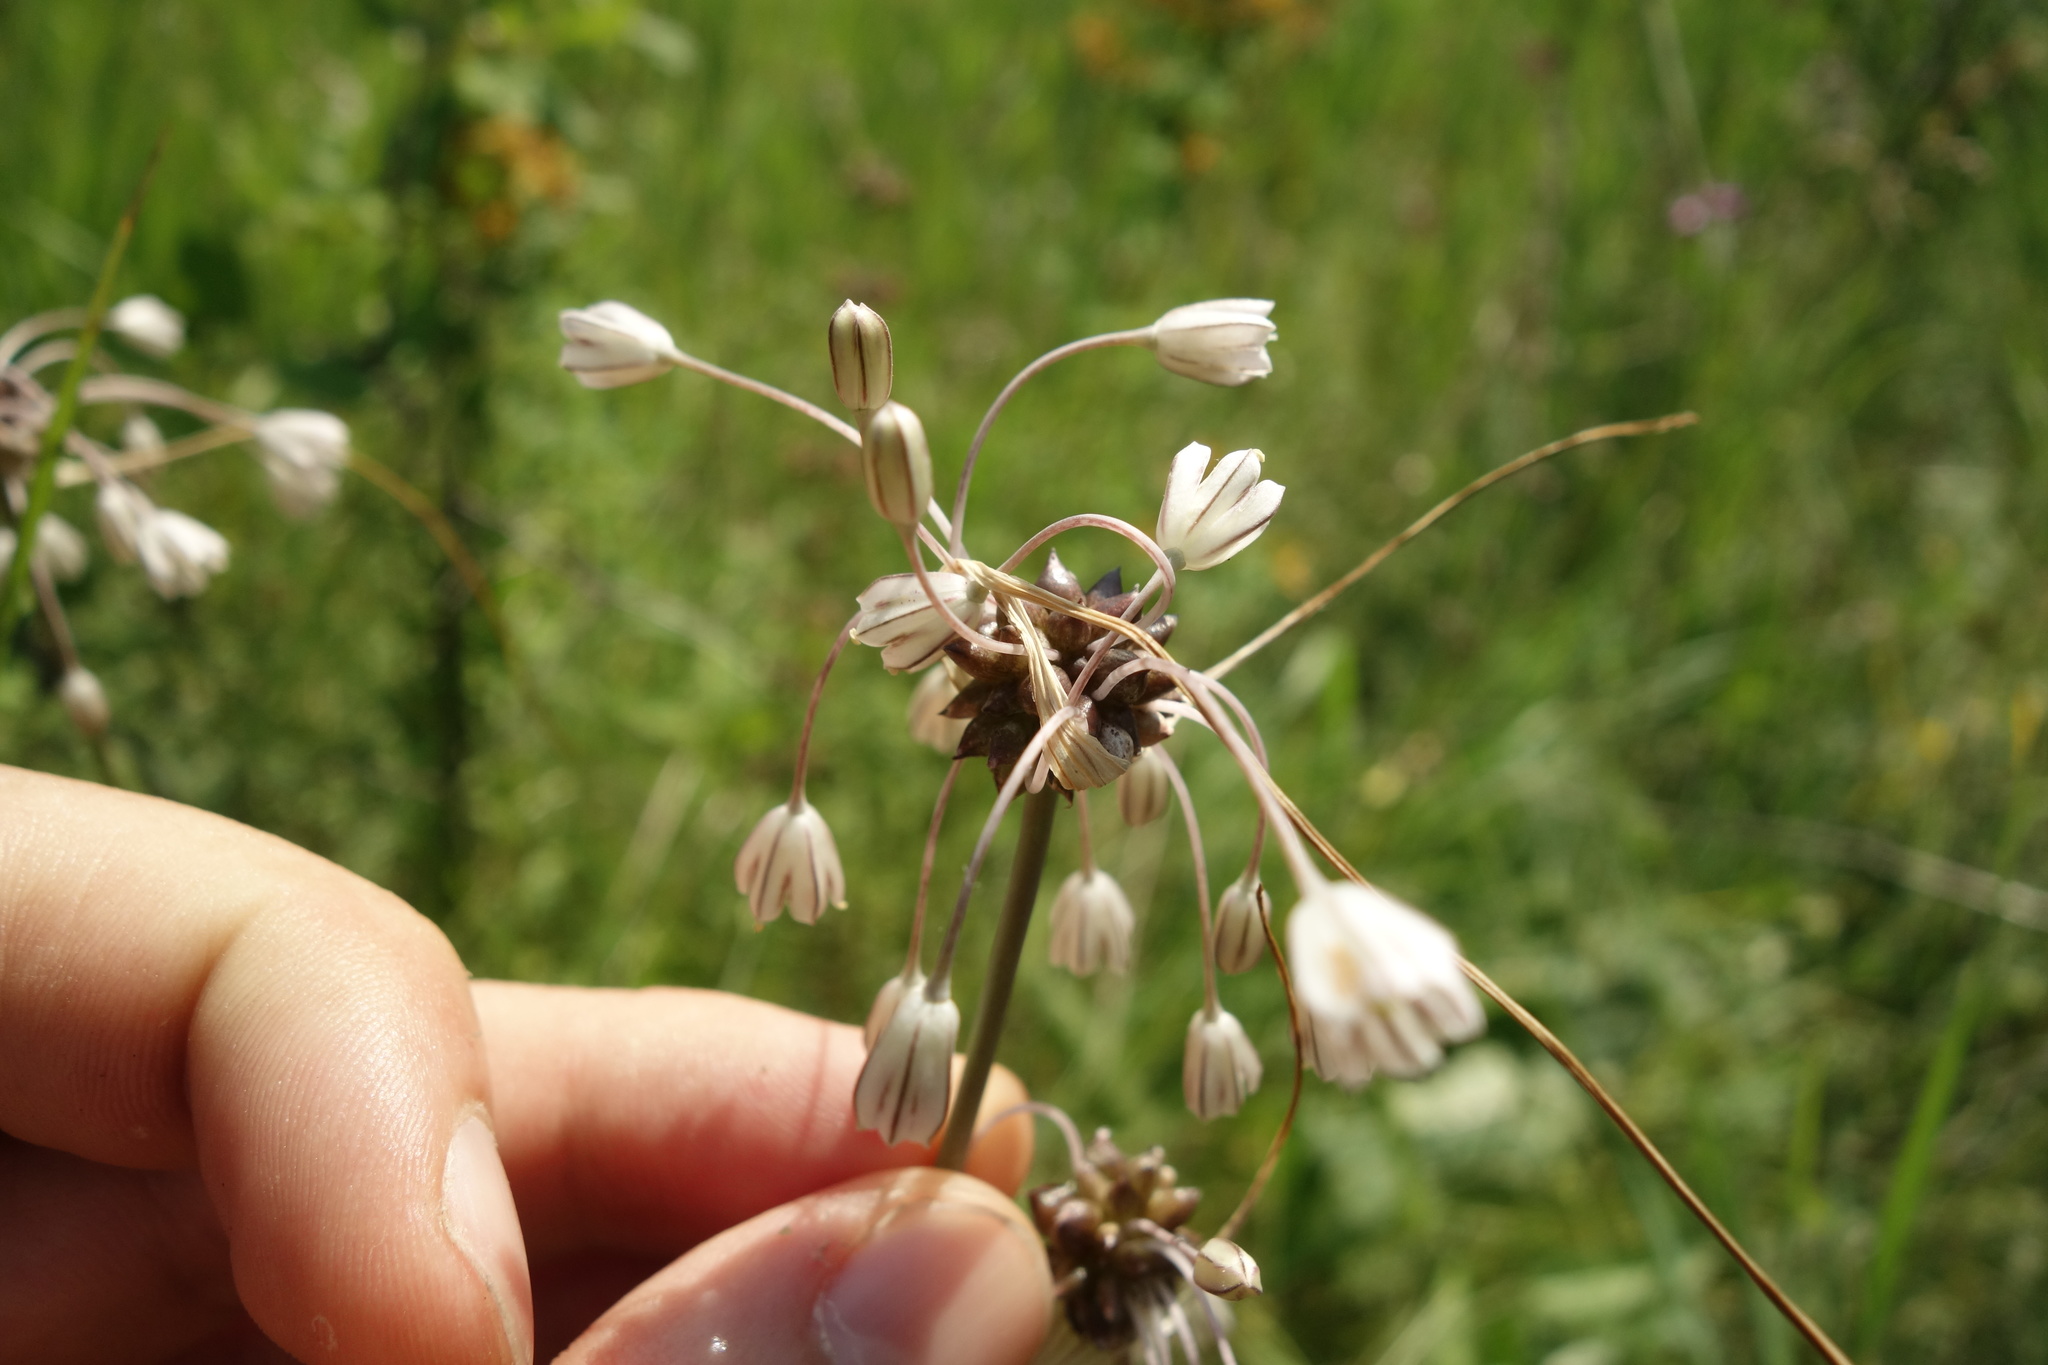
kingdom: Plantae
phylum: Tracheophyta
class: Liliopsida
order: Asparagales
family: Amaryllidaceae
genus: Allium
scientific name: Allium oleraceum
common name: Field garlic
